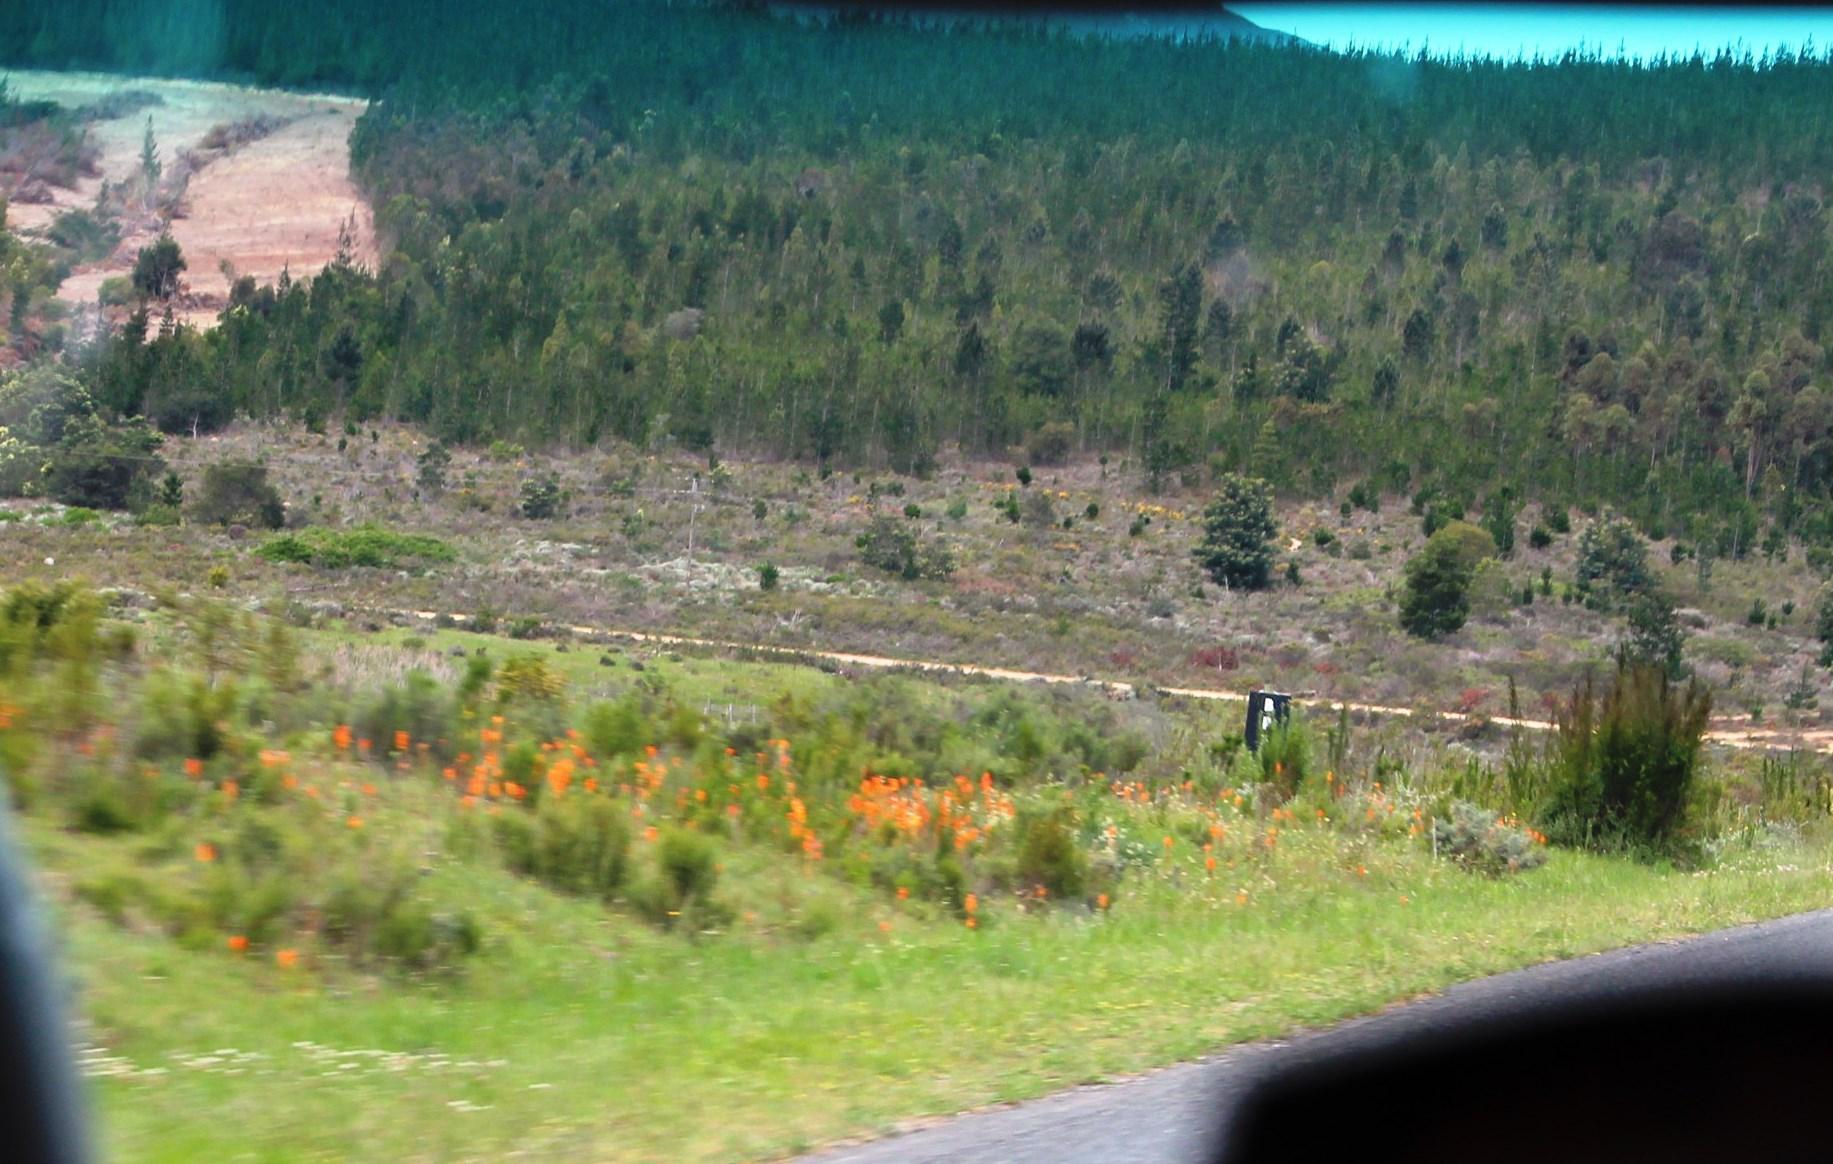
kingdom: Plantae
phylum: Tracheophyta
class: Liliopsida
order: Asparagales
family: Orchidaceae
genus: Satyrium
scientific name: Satyrium coriifolium
